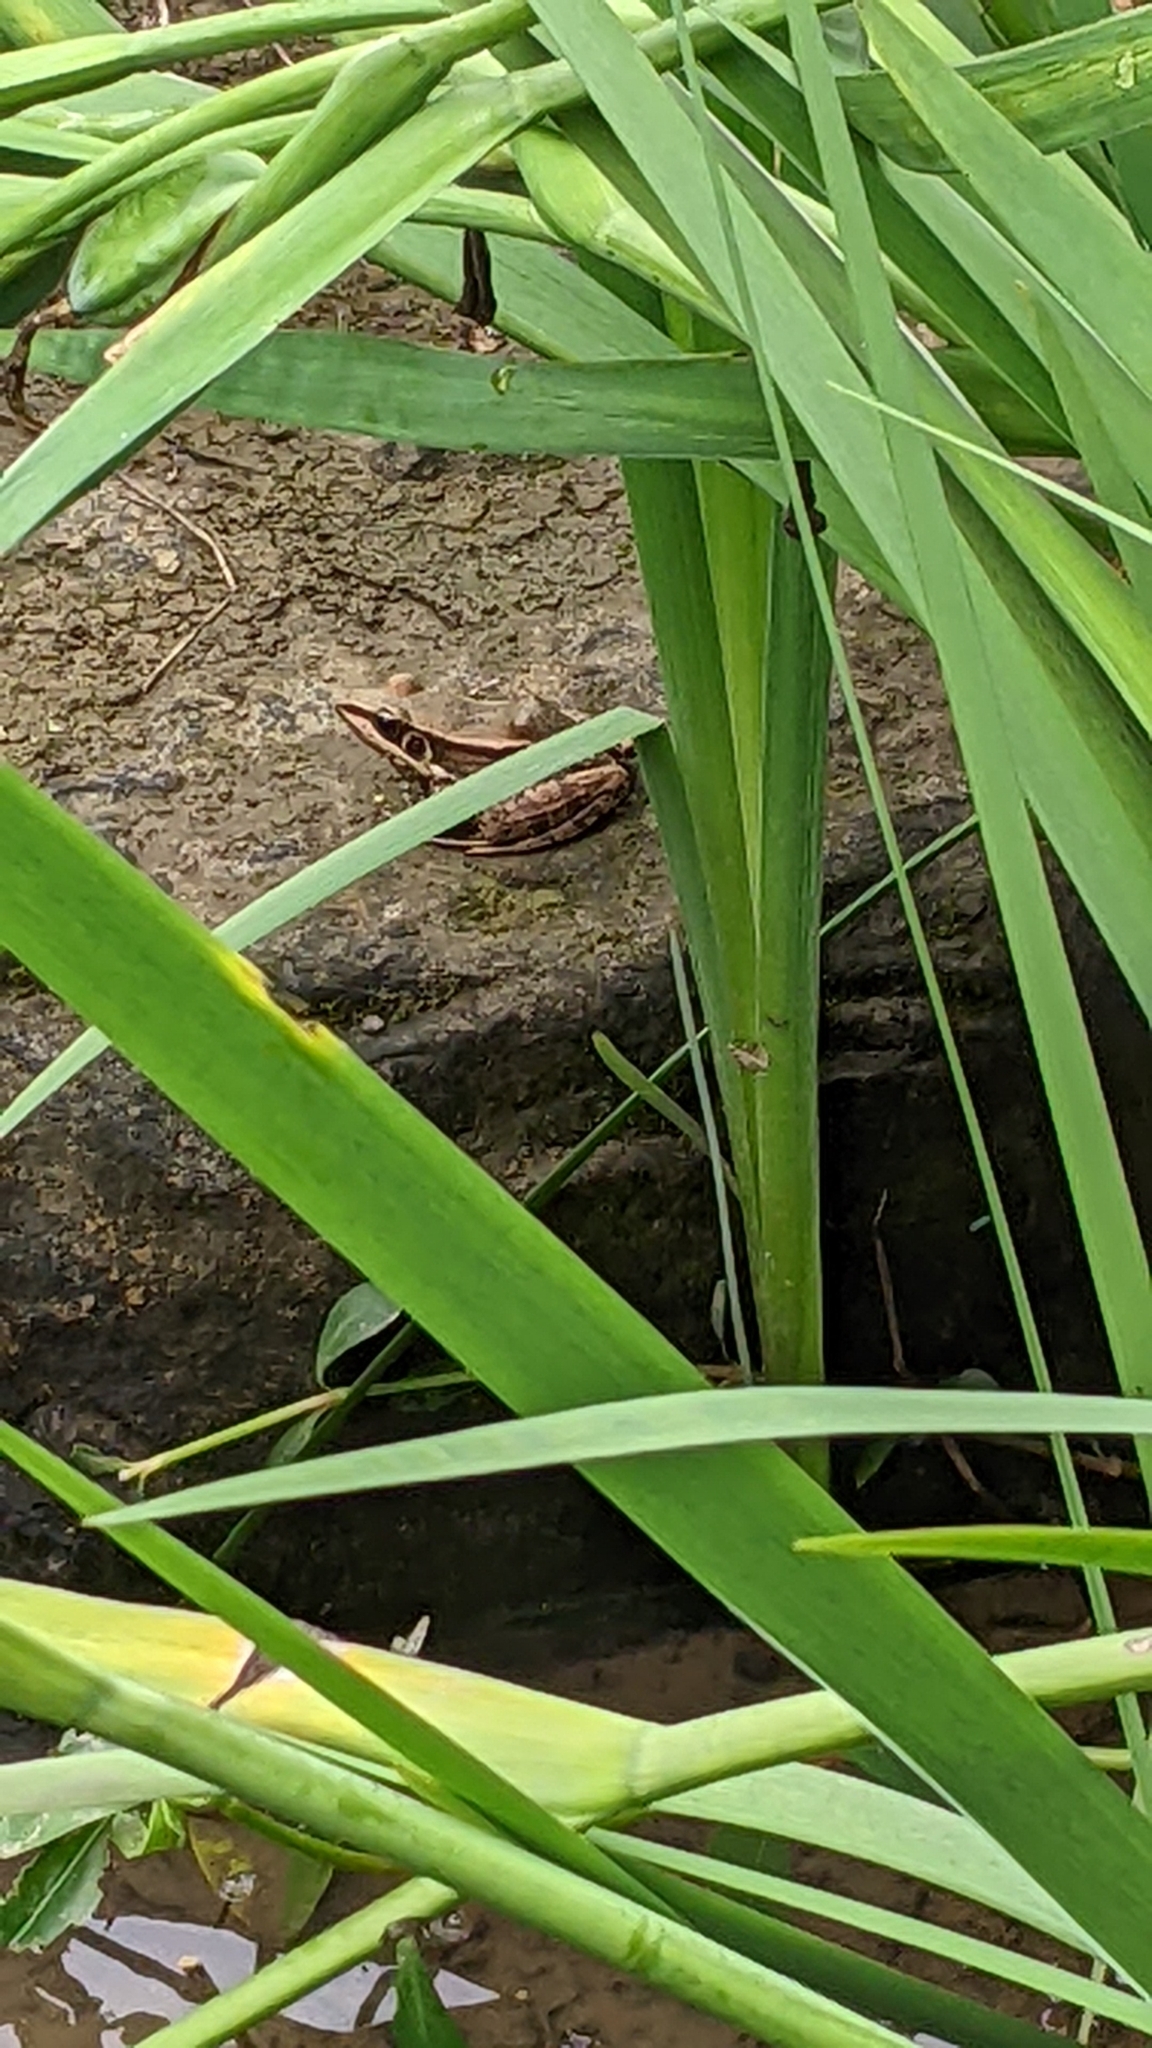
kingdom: Animalia
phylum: Chordata
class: Amphibia
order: Anura
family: Ranidae
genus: Sylvirana
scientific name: Sylvirana guentheri
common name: Guenther's amoy frog
